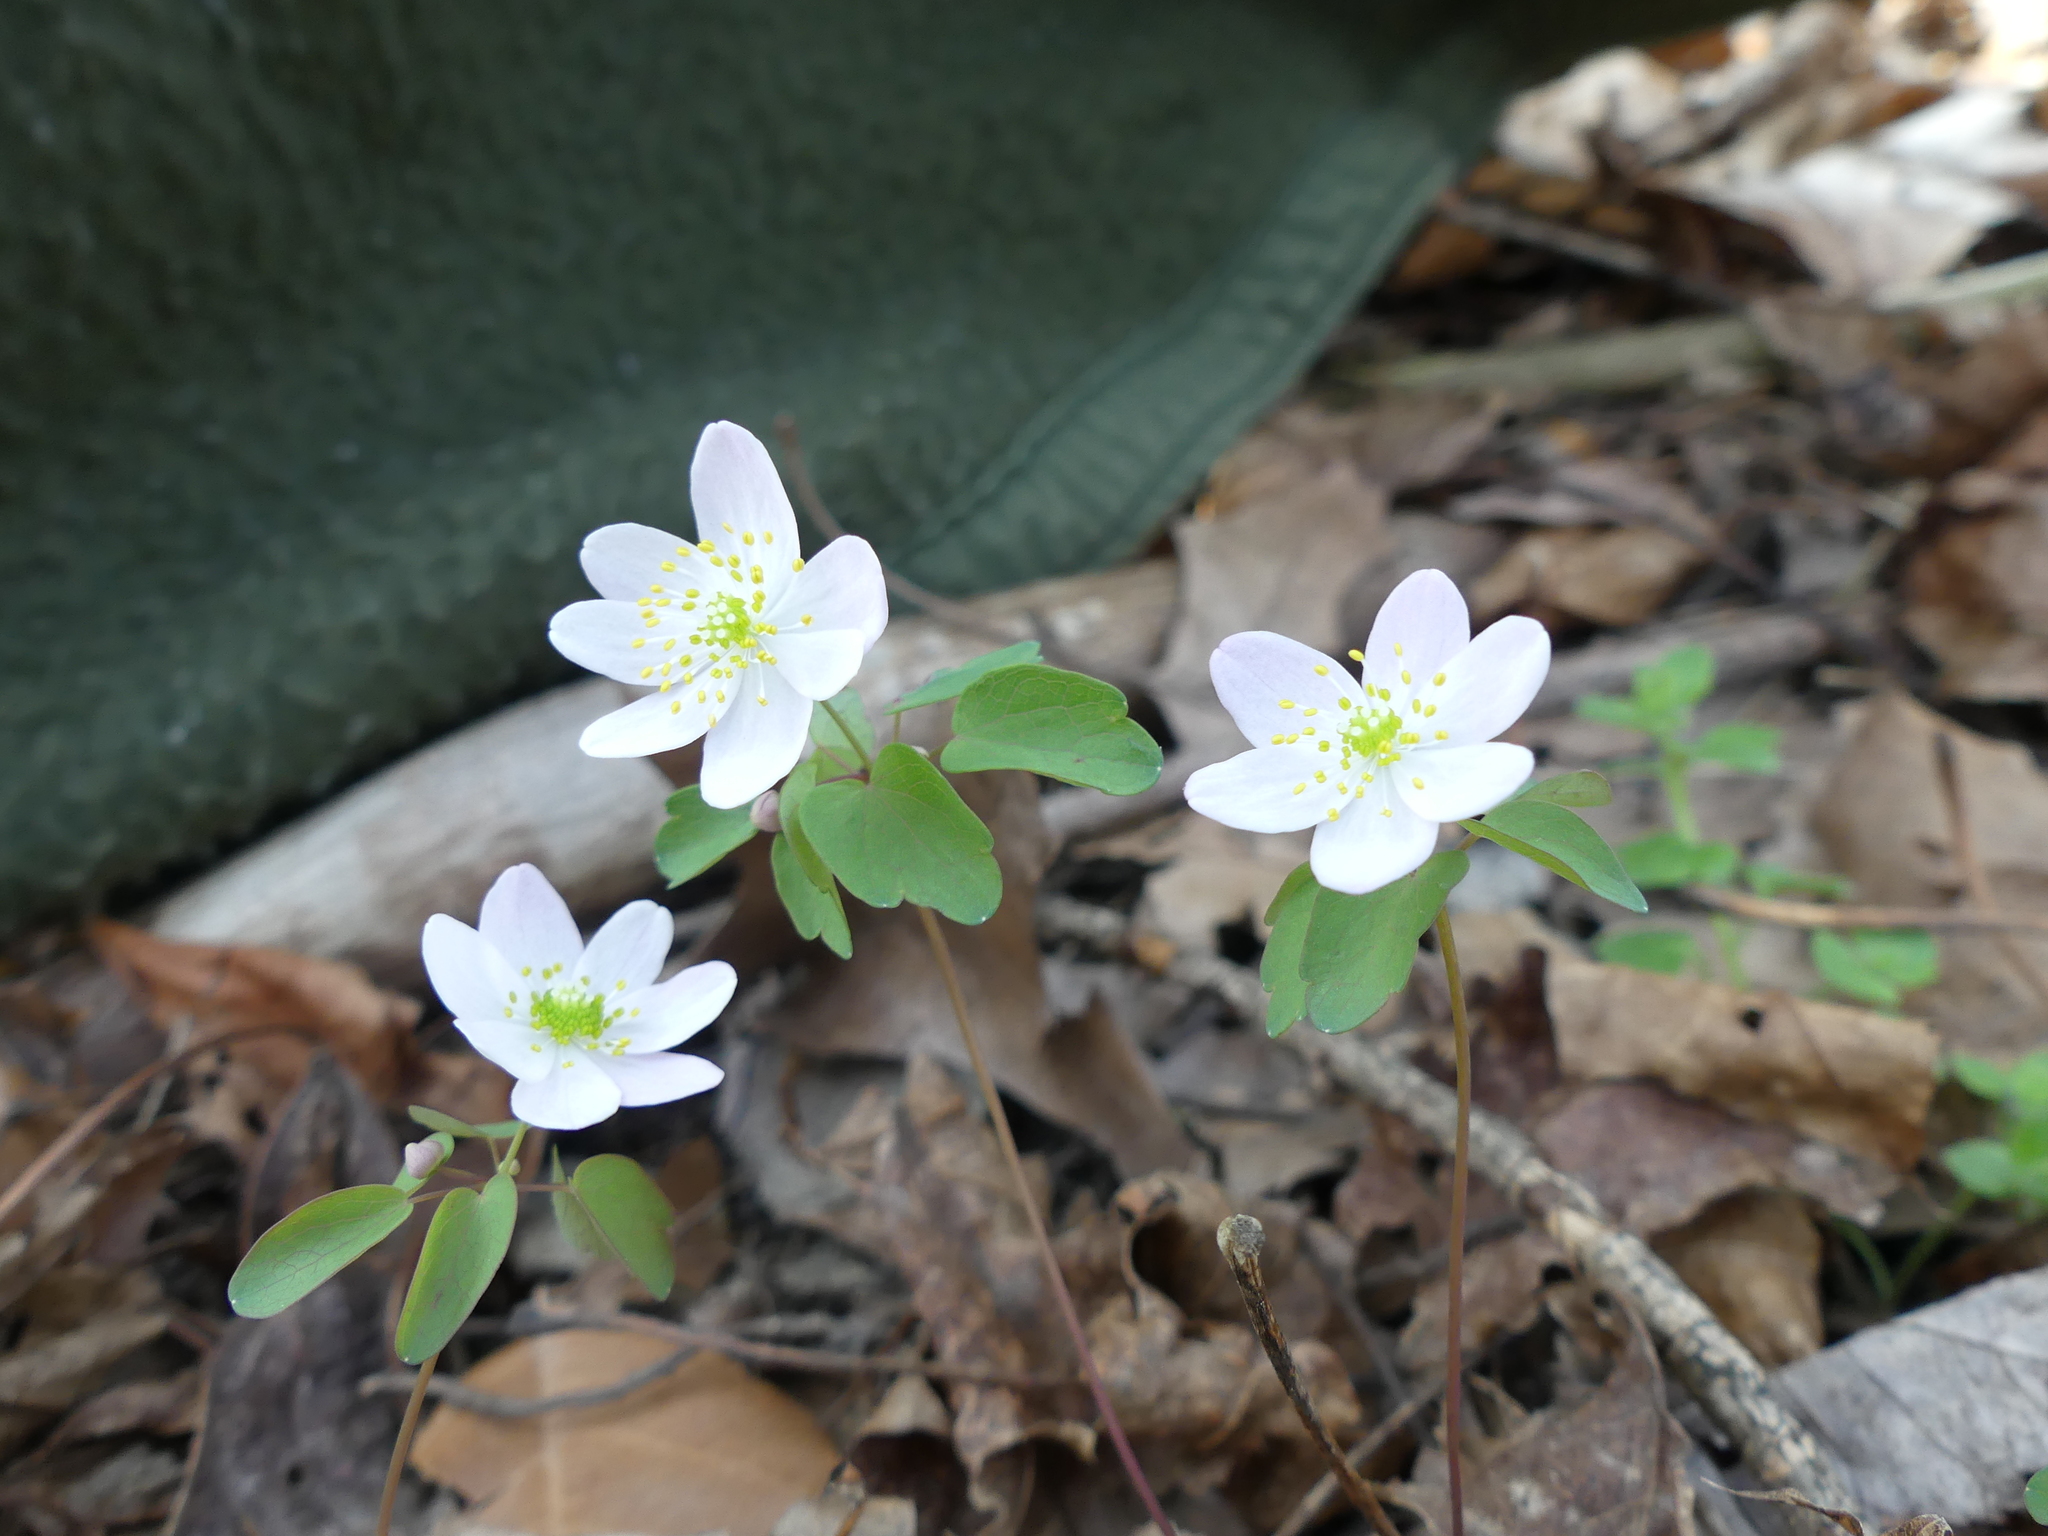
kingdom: Plantae
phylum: Tracheophyta
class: Magnoliopsida
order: Ranunculales
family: Ranunculaceae
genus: Thalictrum
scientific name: Thalictrum thalictroides
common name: Rue-anemone
